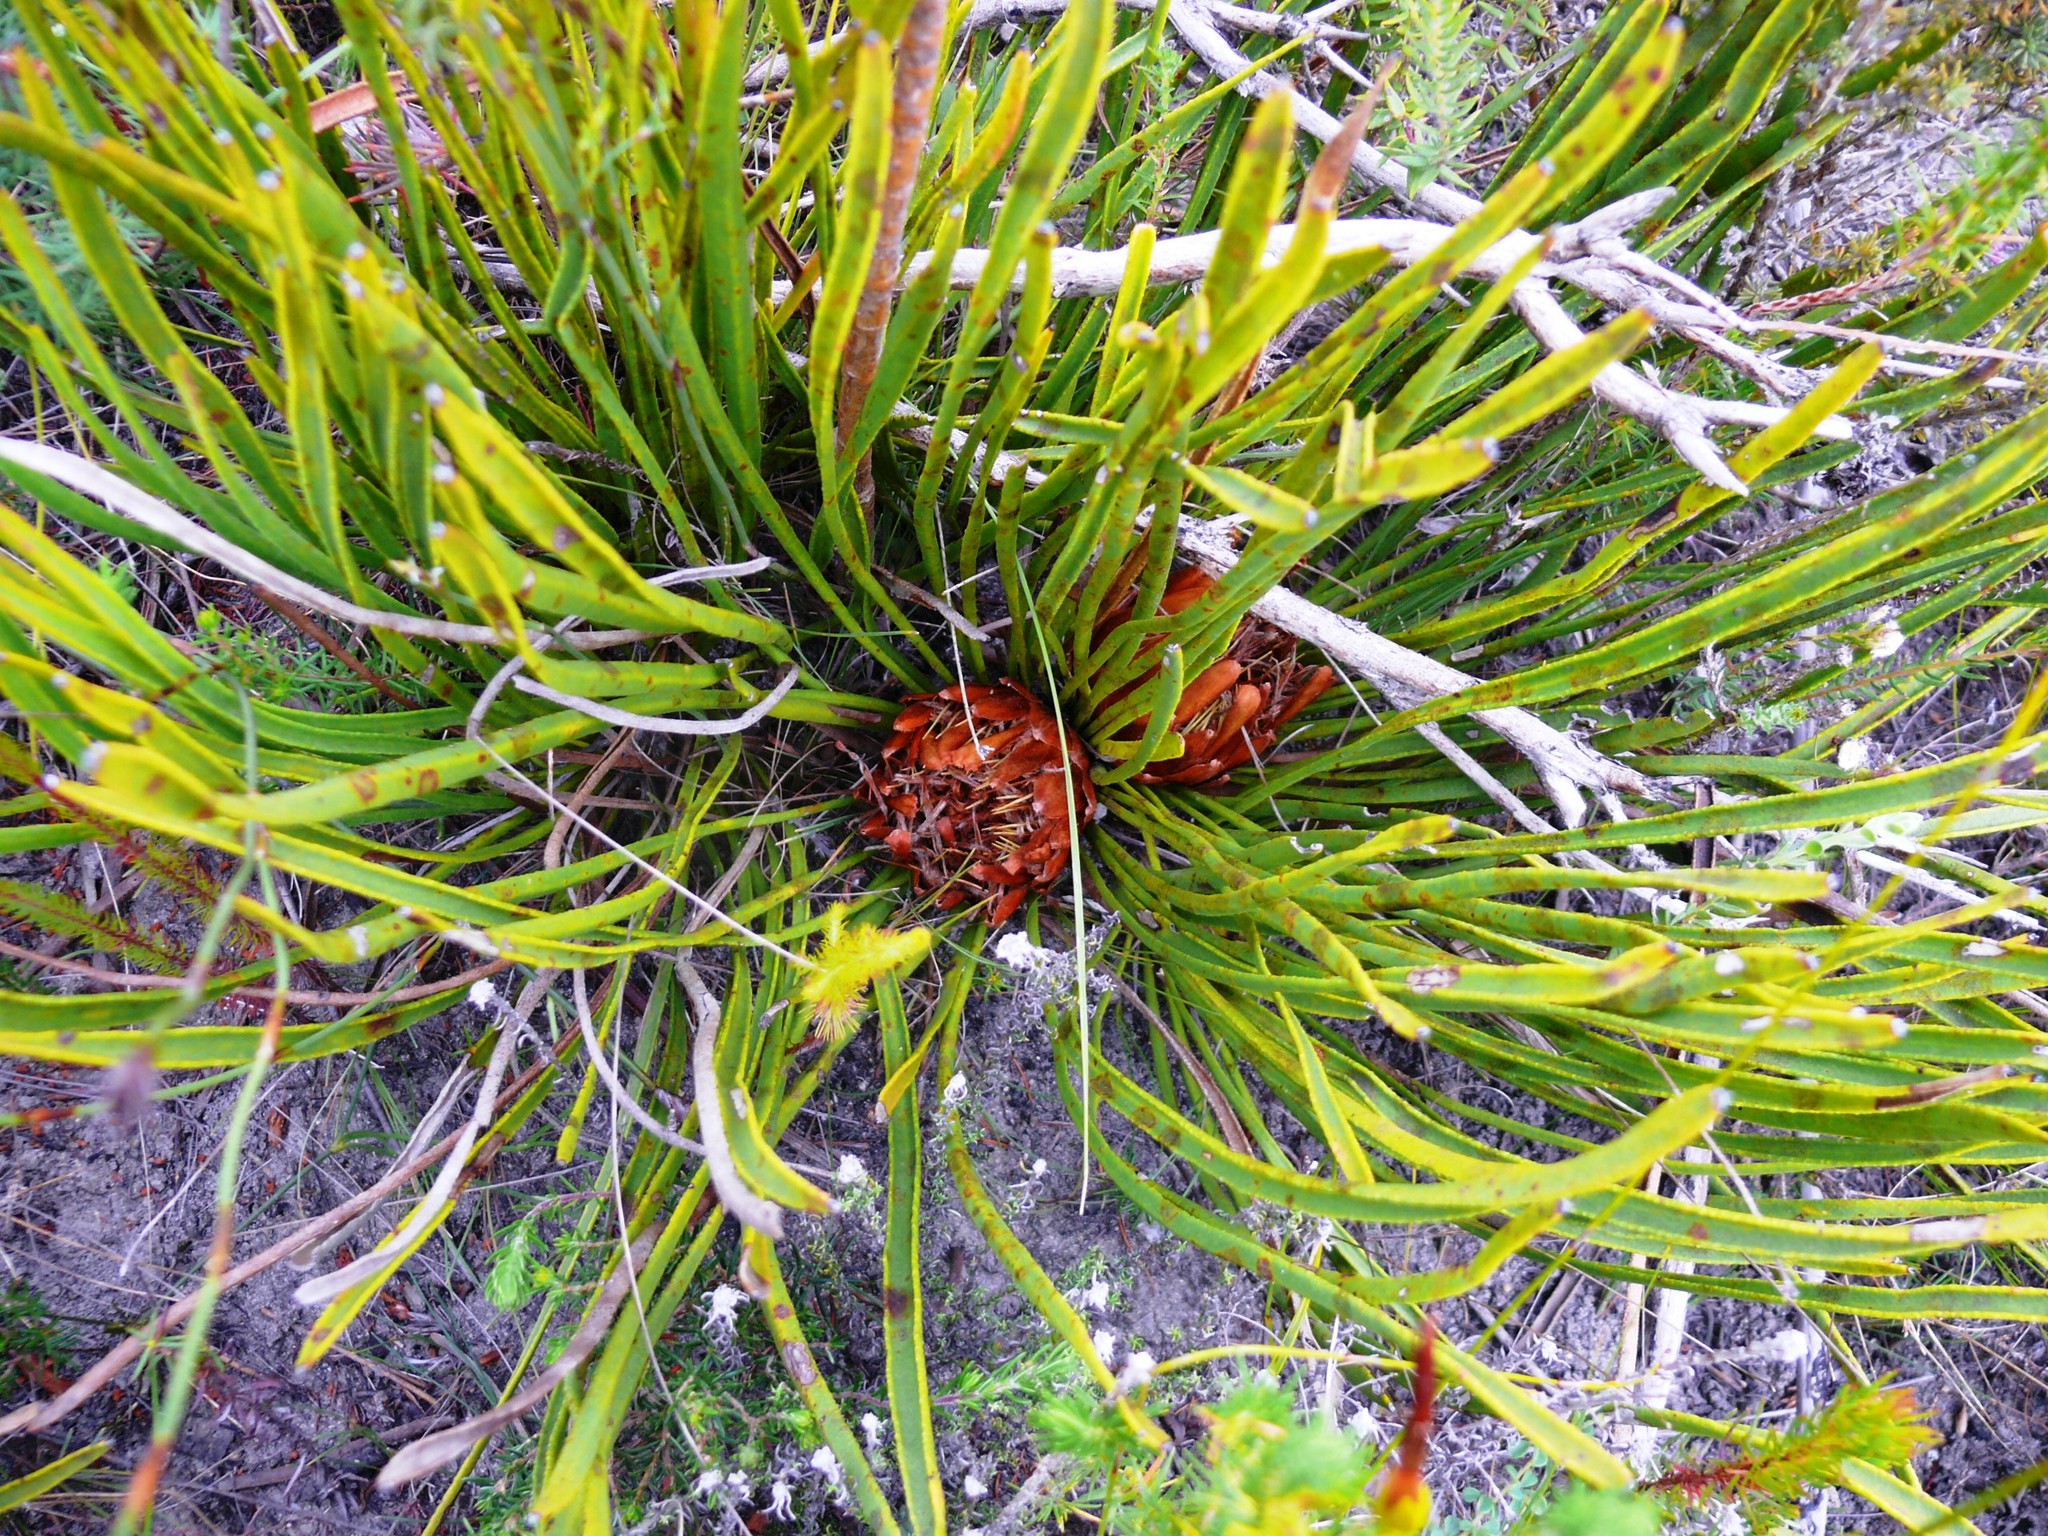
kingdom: Plantae
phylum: Tracheophyta
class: Magnoliopsida
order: Proteales
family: Proteaceae
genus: Protea
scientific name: Protea scabra
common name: Sandpaper-leaf sugarbush
